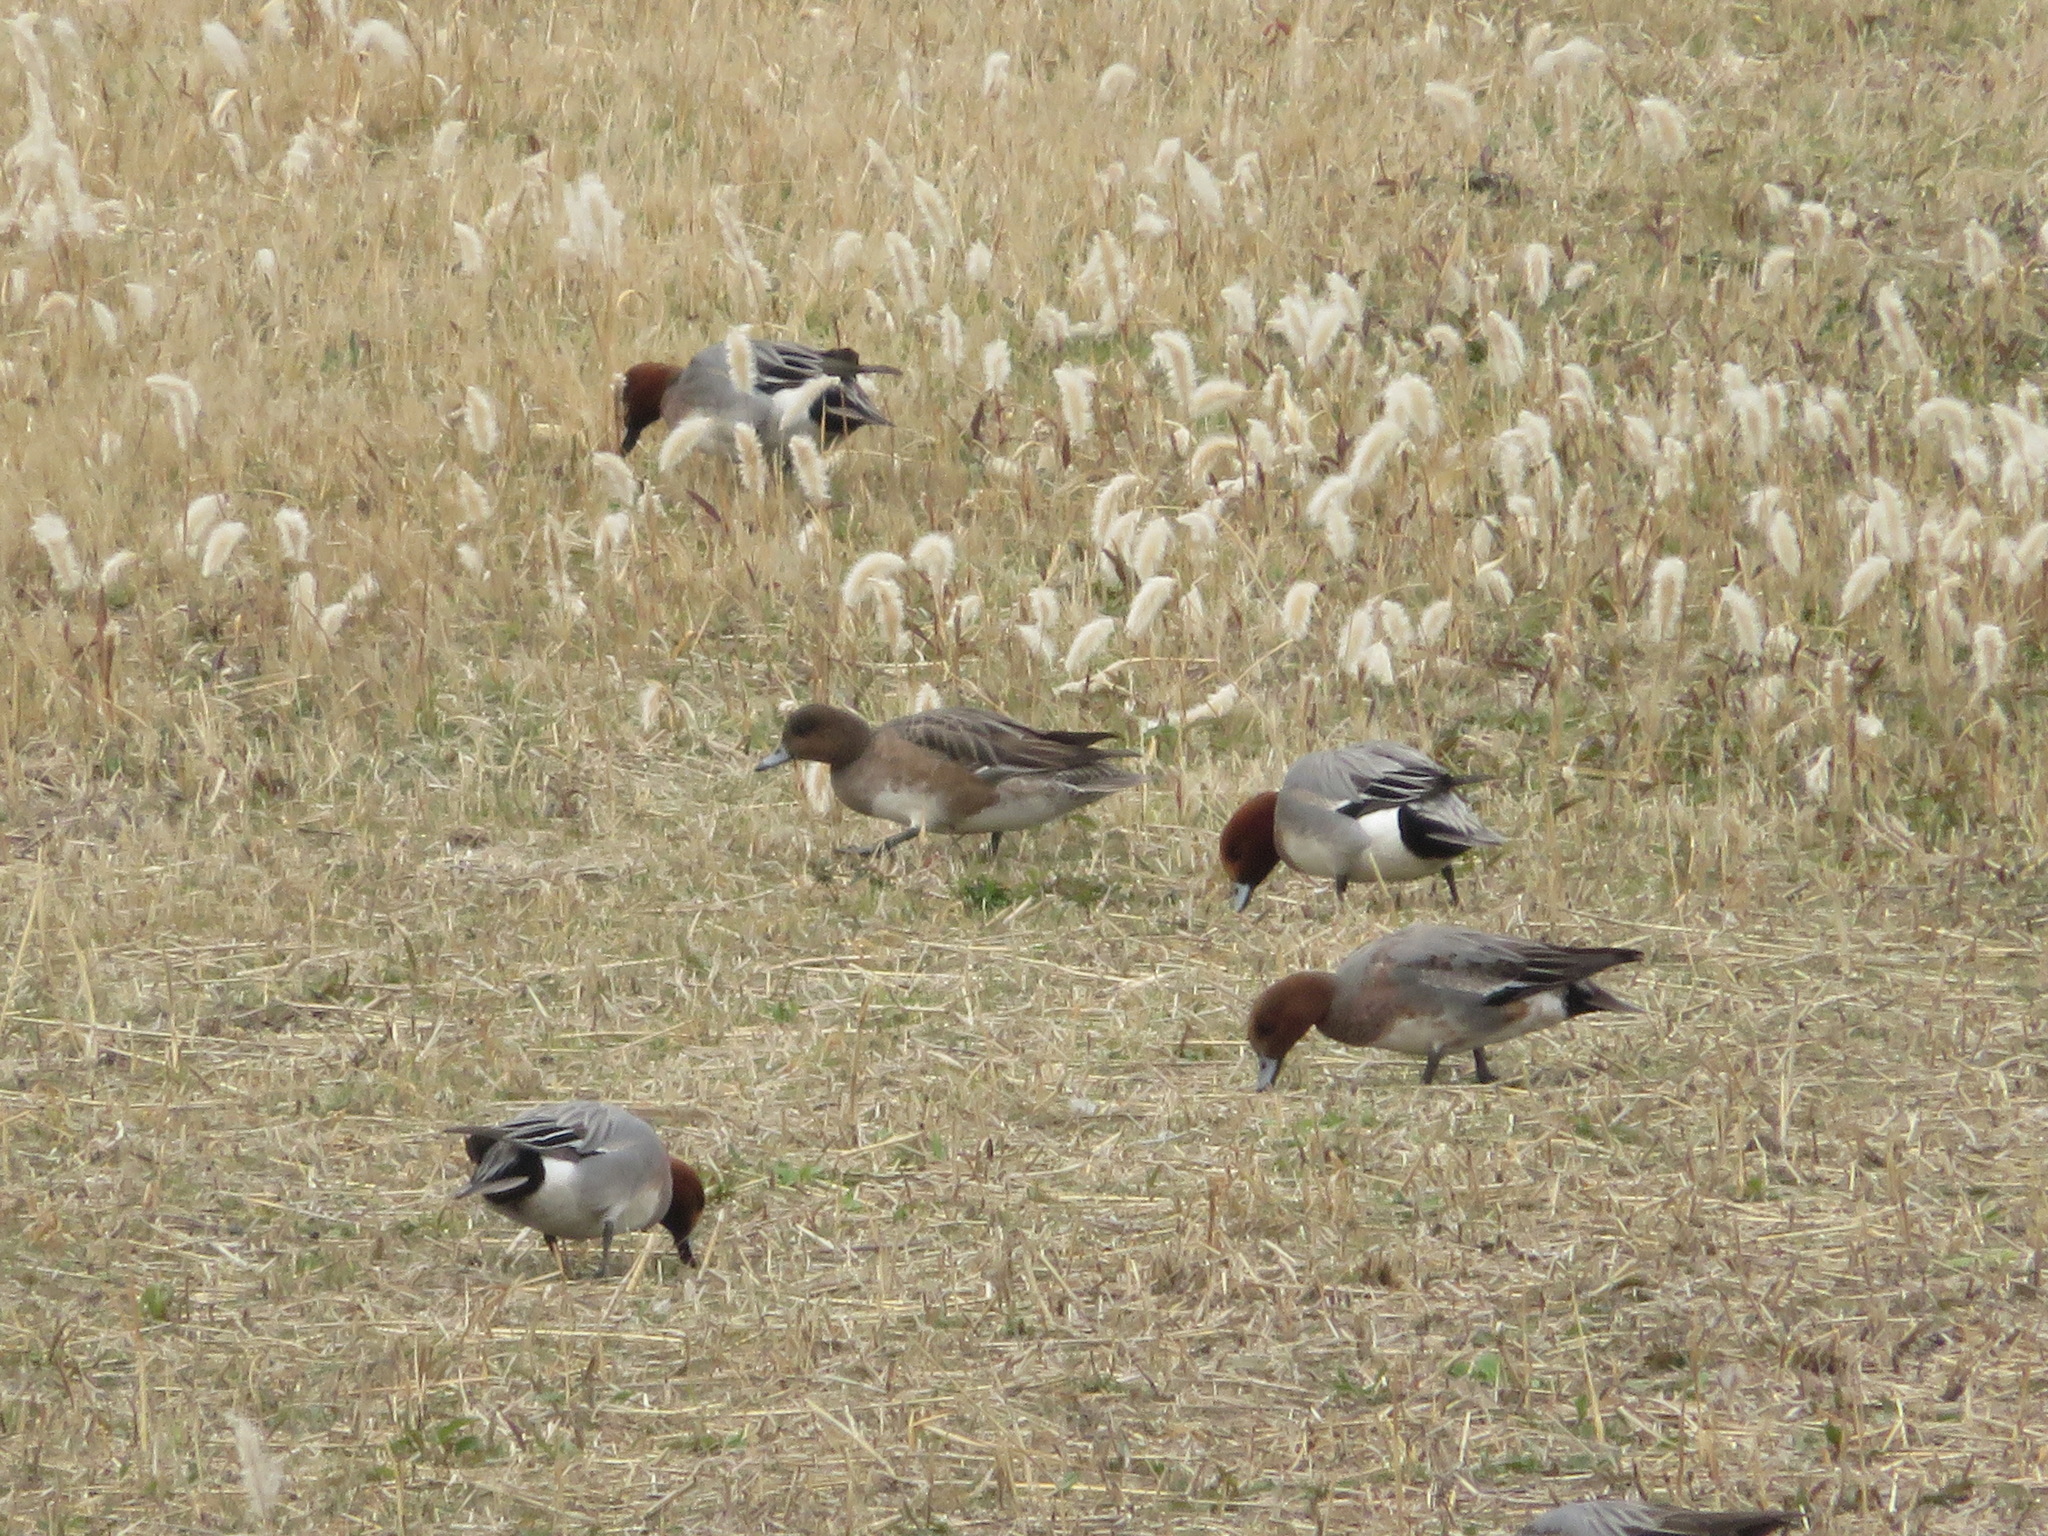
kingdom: Animalia
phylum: Chordata
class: Aves
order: Anseriformes
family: Anatidae
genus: Mareca
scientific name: Mareca penelope
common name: Eurasian wigeon
